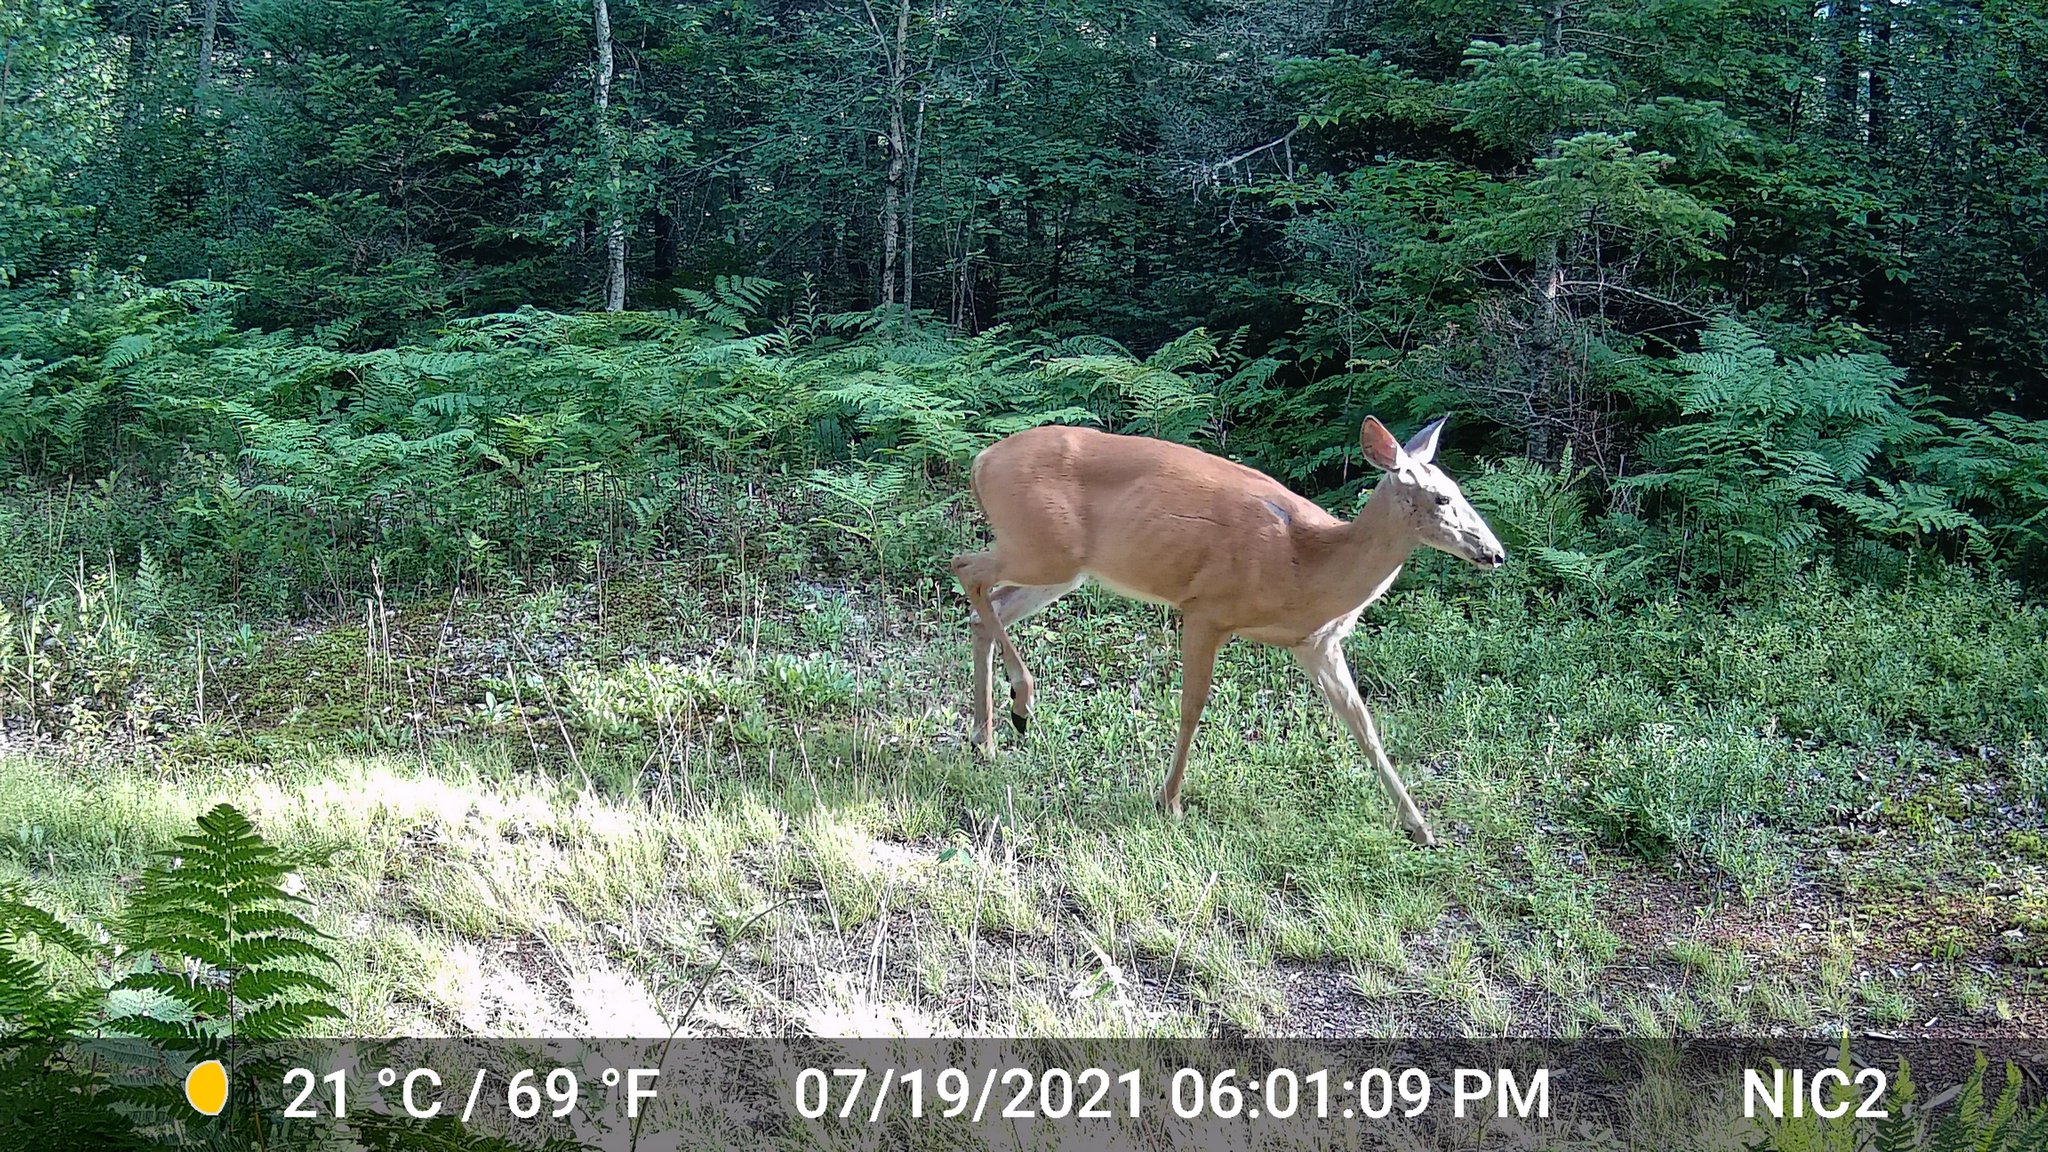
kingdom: Animalia
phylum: Chordata
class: Mammalia
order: Artiodactyla
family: Cervidae
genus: Odocoileus
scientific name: Odocoileus virginianus
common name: White-tailed deer
